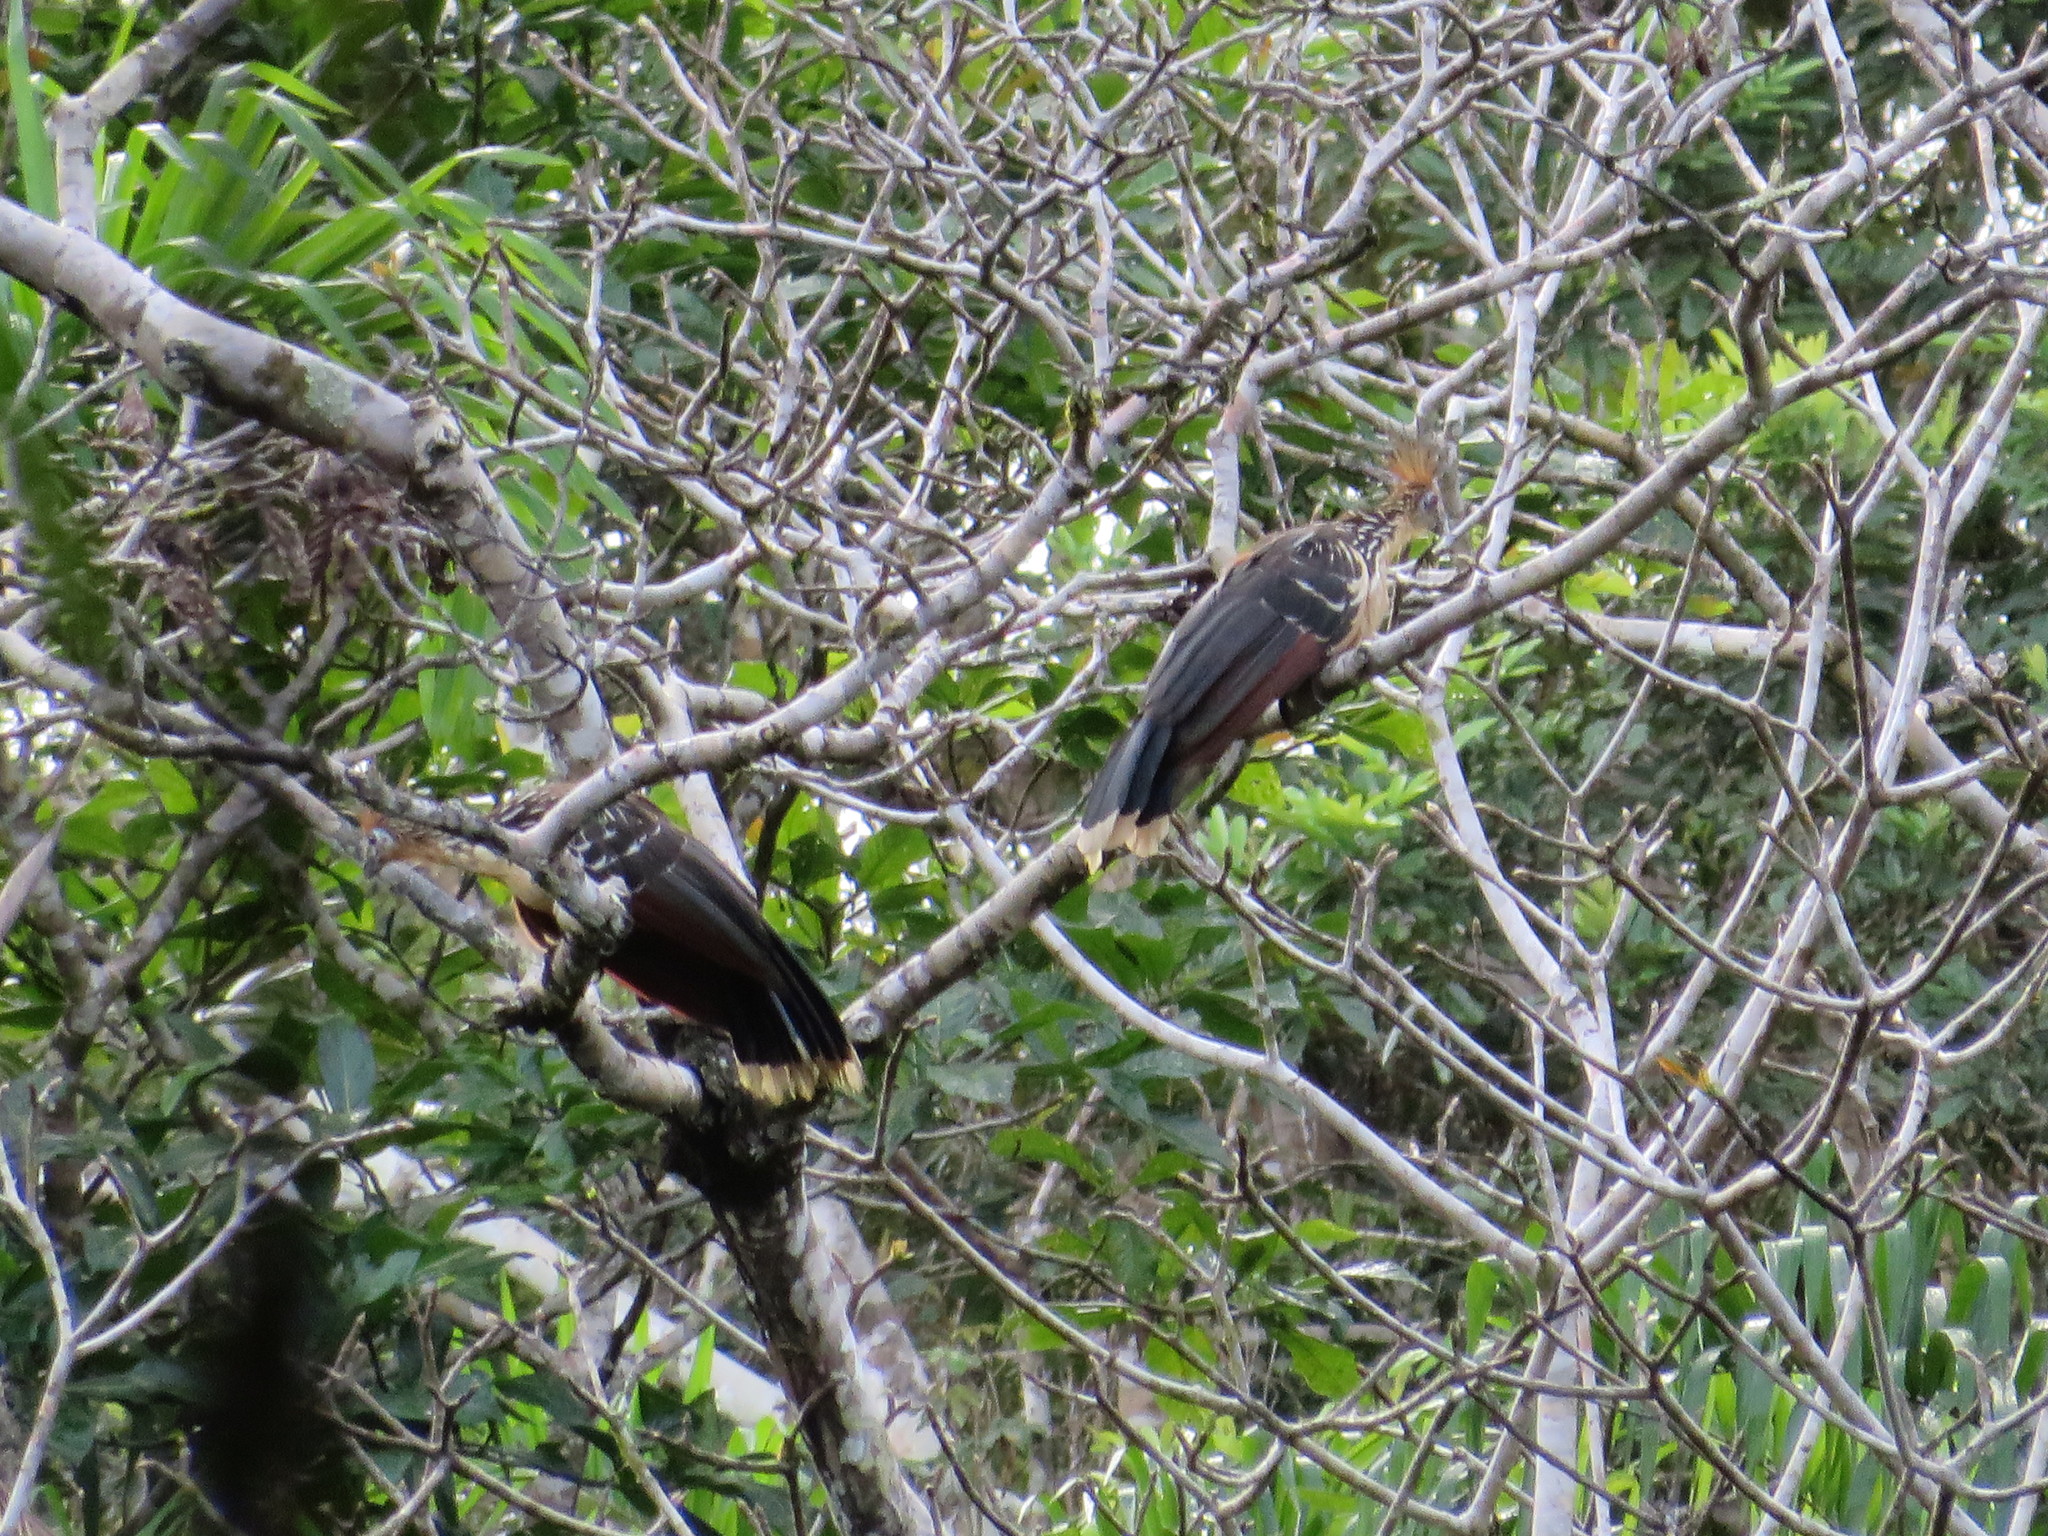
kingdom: Animalia
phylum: Chordata
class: Aves
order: Opisthocomiformes
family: Opisthocomidae
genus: Opisthocomus
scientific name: Opisthocomus hoazin
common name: Hoatzin
